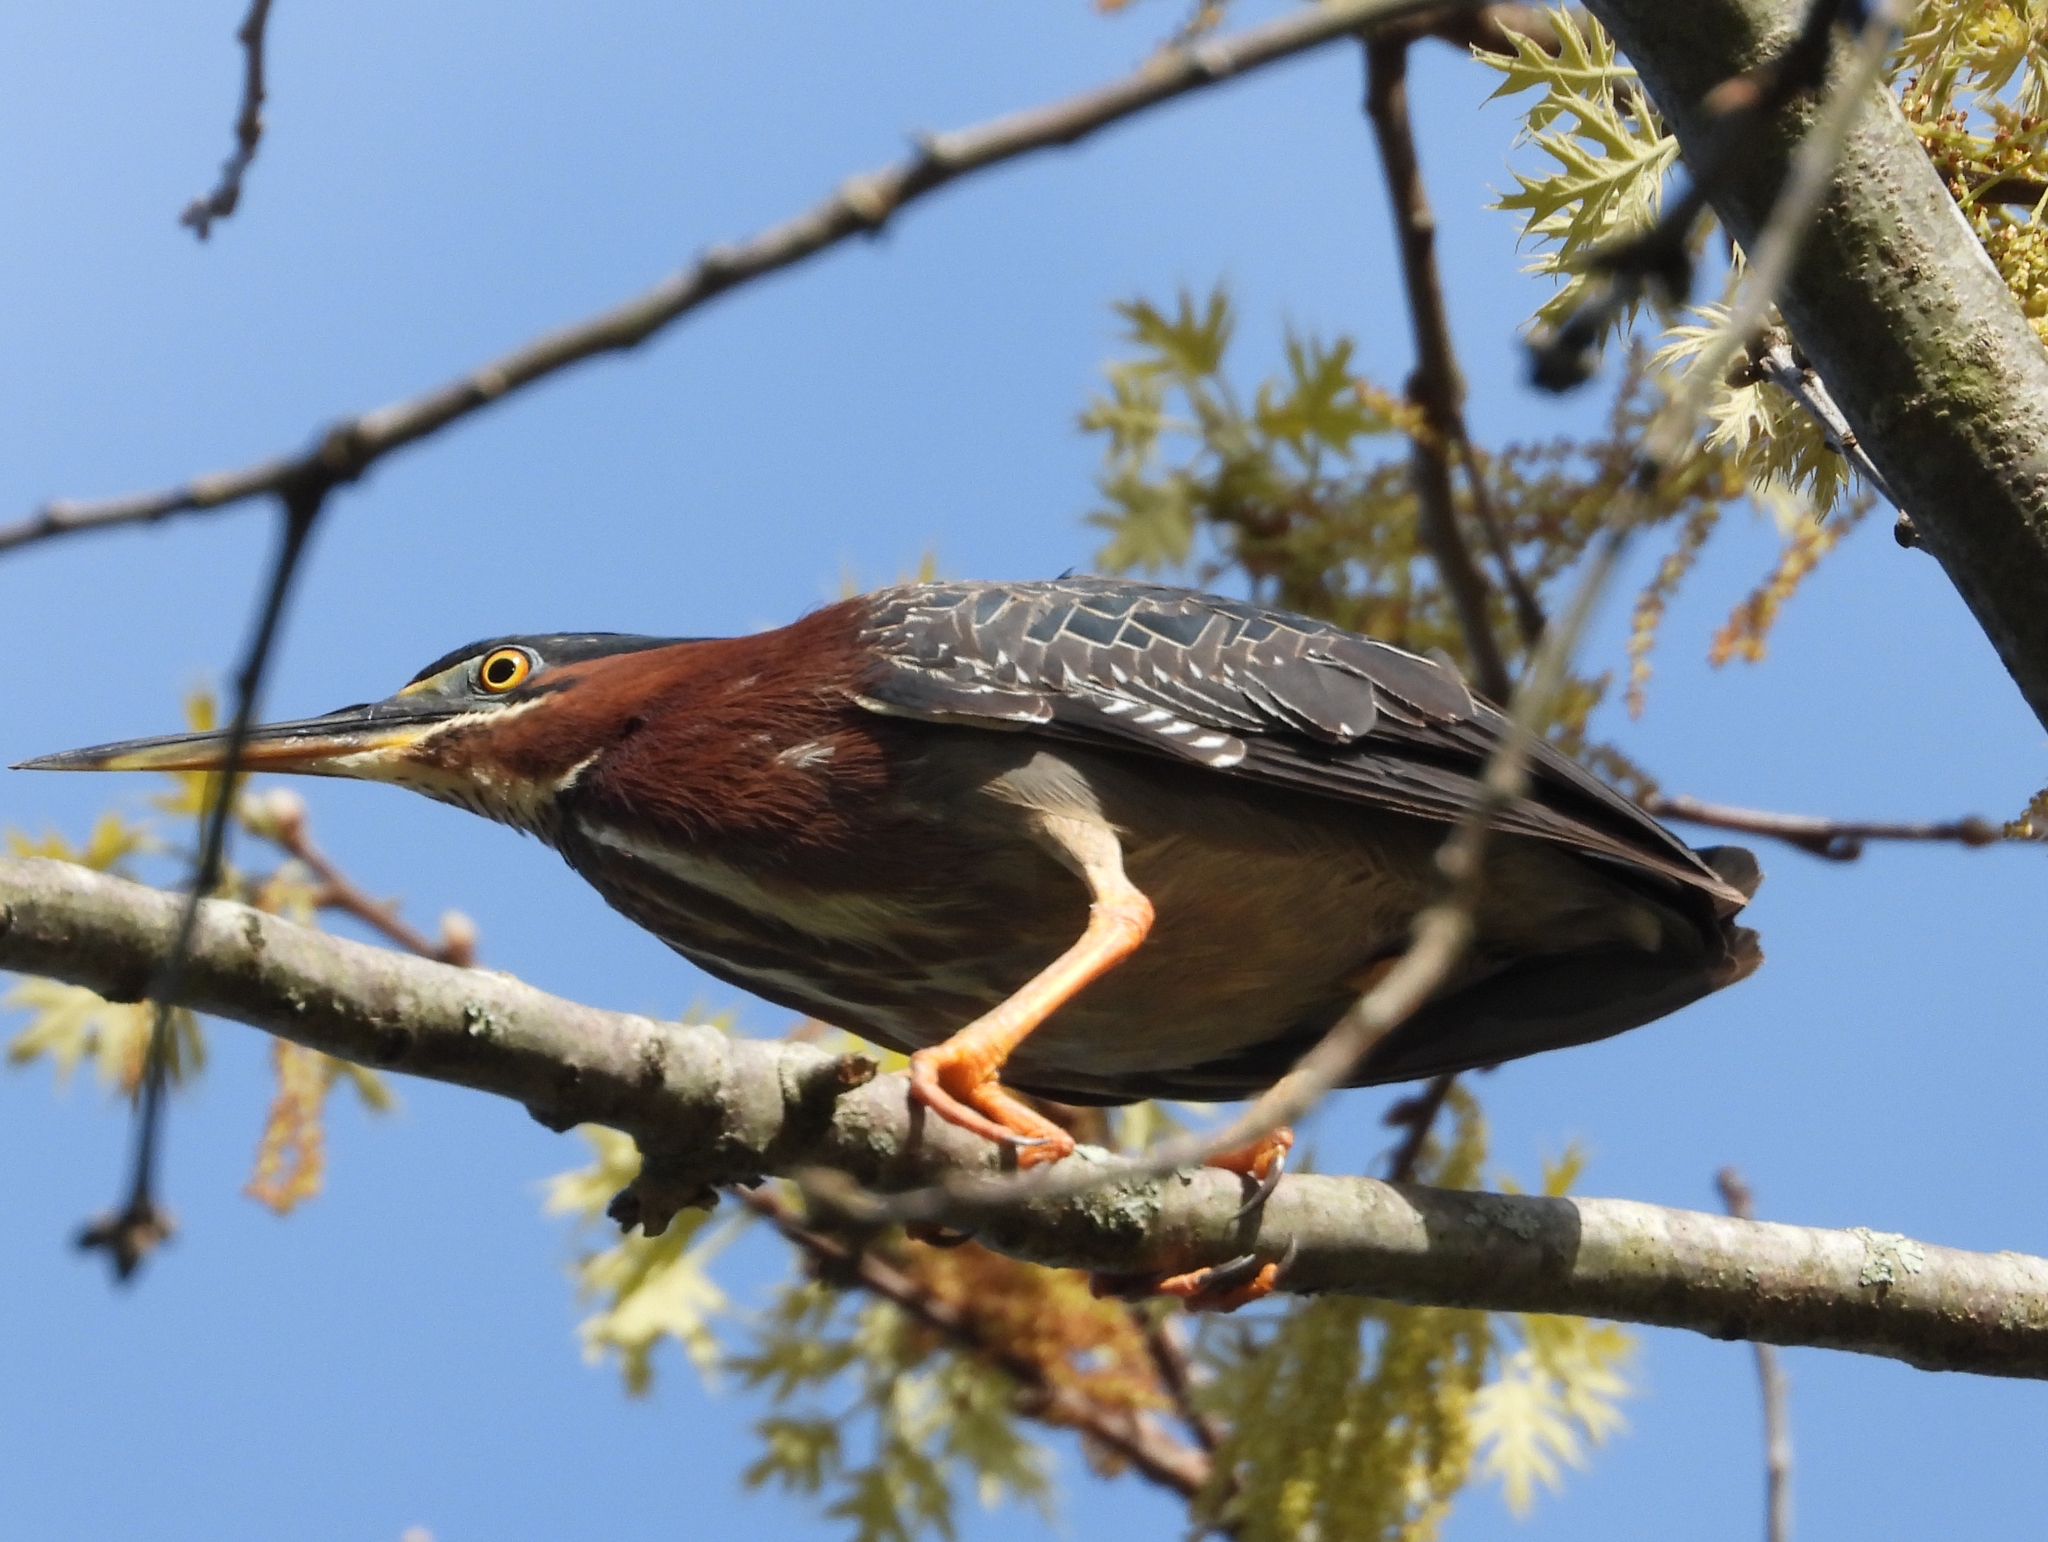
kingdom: Animalia
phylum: Chordata
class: Aves
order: Pelecaniformes
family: Ardeidae
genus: Butorides
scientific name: Butorides virescens
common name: Green heron
